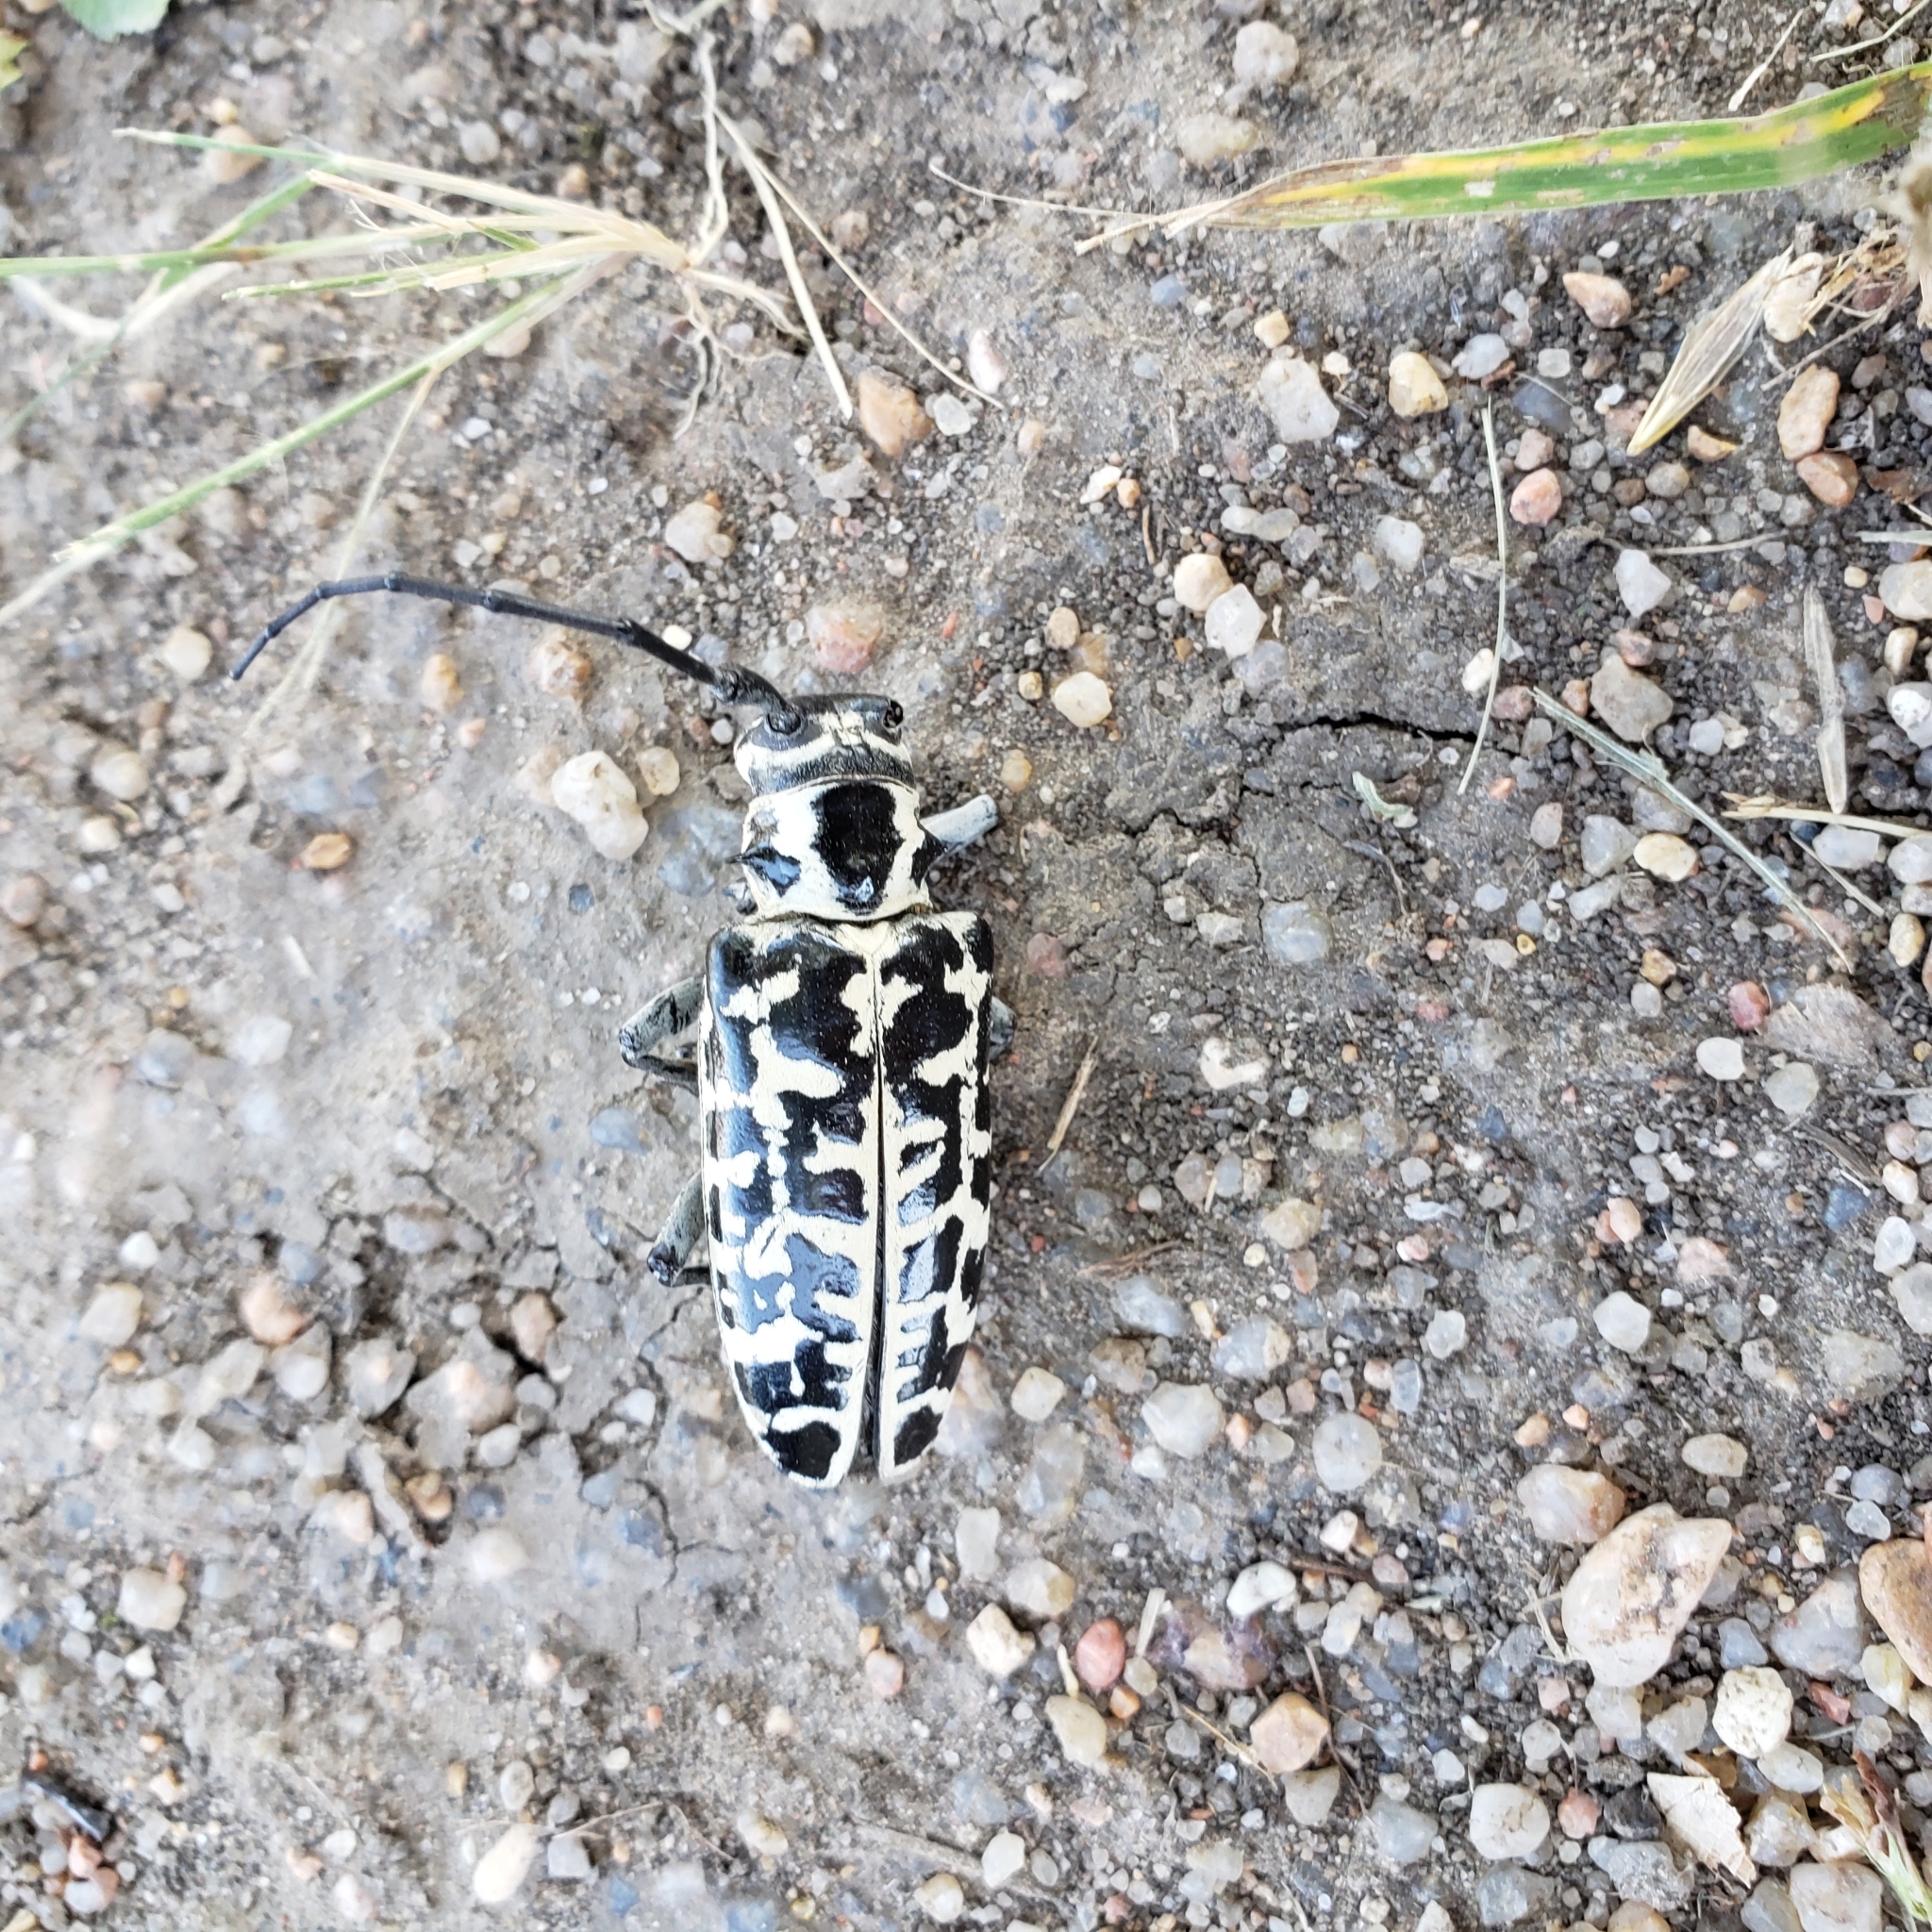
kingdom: Animalia
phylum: Arthropoda
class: Insecta
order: Coleoptera
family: Cerambycidae
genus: Plectrodera
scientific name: Plectrodera scalator
